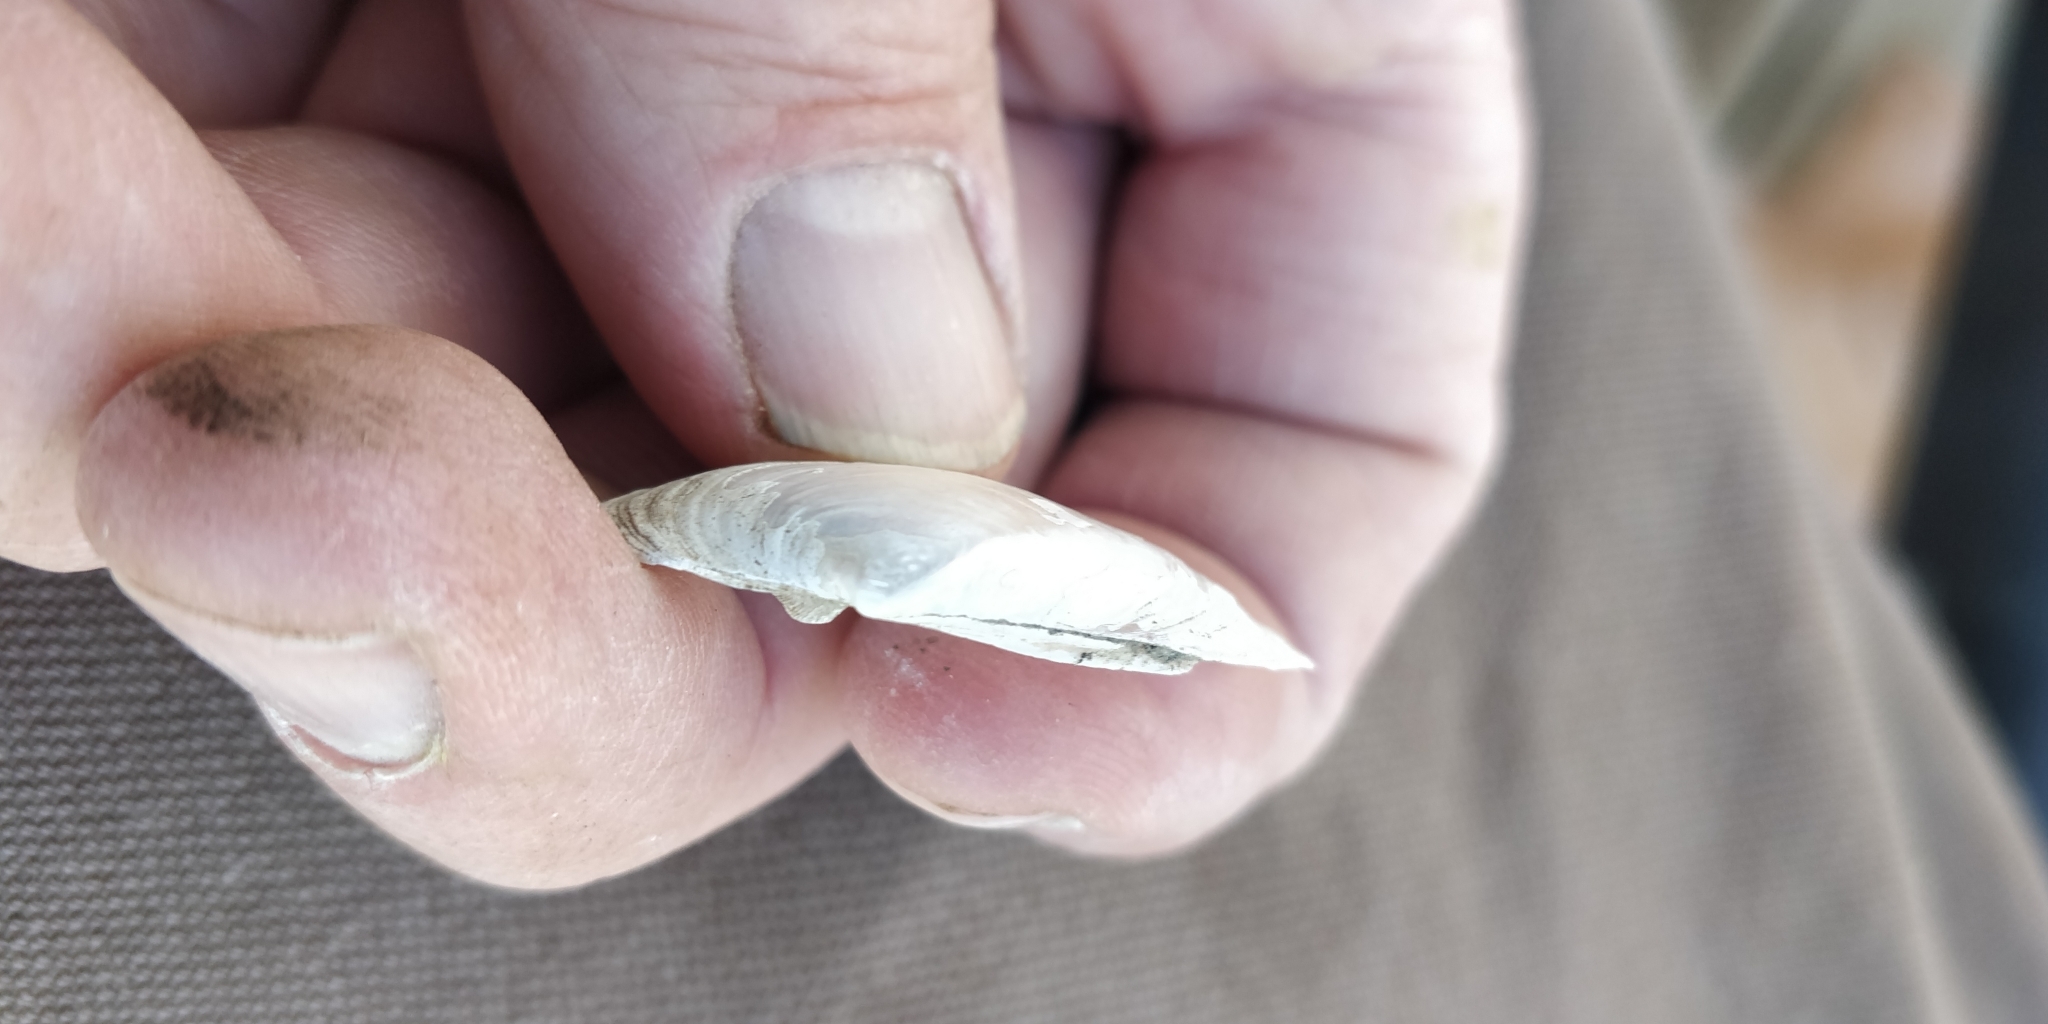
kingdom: Animalia
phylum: Mollusca
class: Bivalvia
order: Unionida
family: Unionidae
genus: Truncilla
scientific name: Truncilla donaciformis
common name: Fawnsfoot
